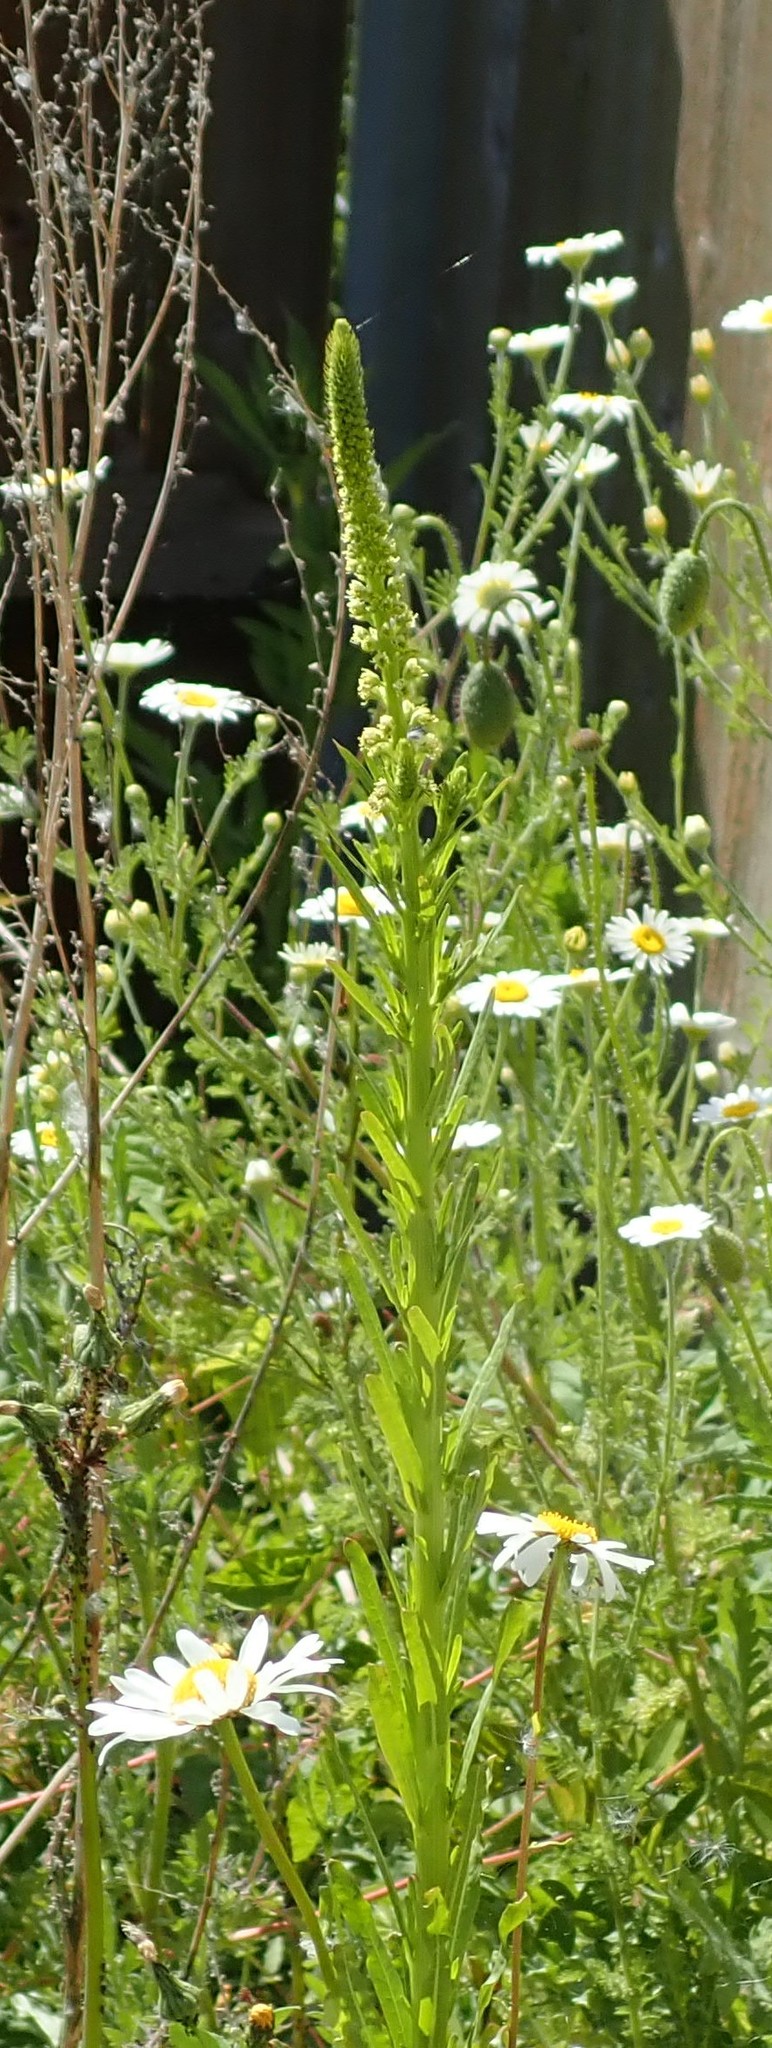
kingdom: Plantae
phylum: Tracheophyta
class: Magnoliopsida
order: Brassicales
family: Resedaceae
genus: Reseda
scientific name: Reseda luteola
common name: Weld
